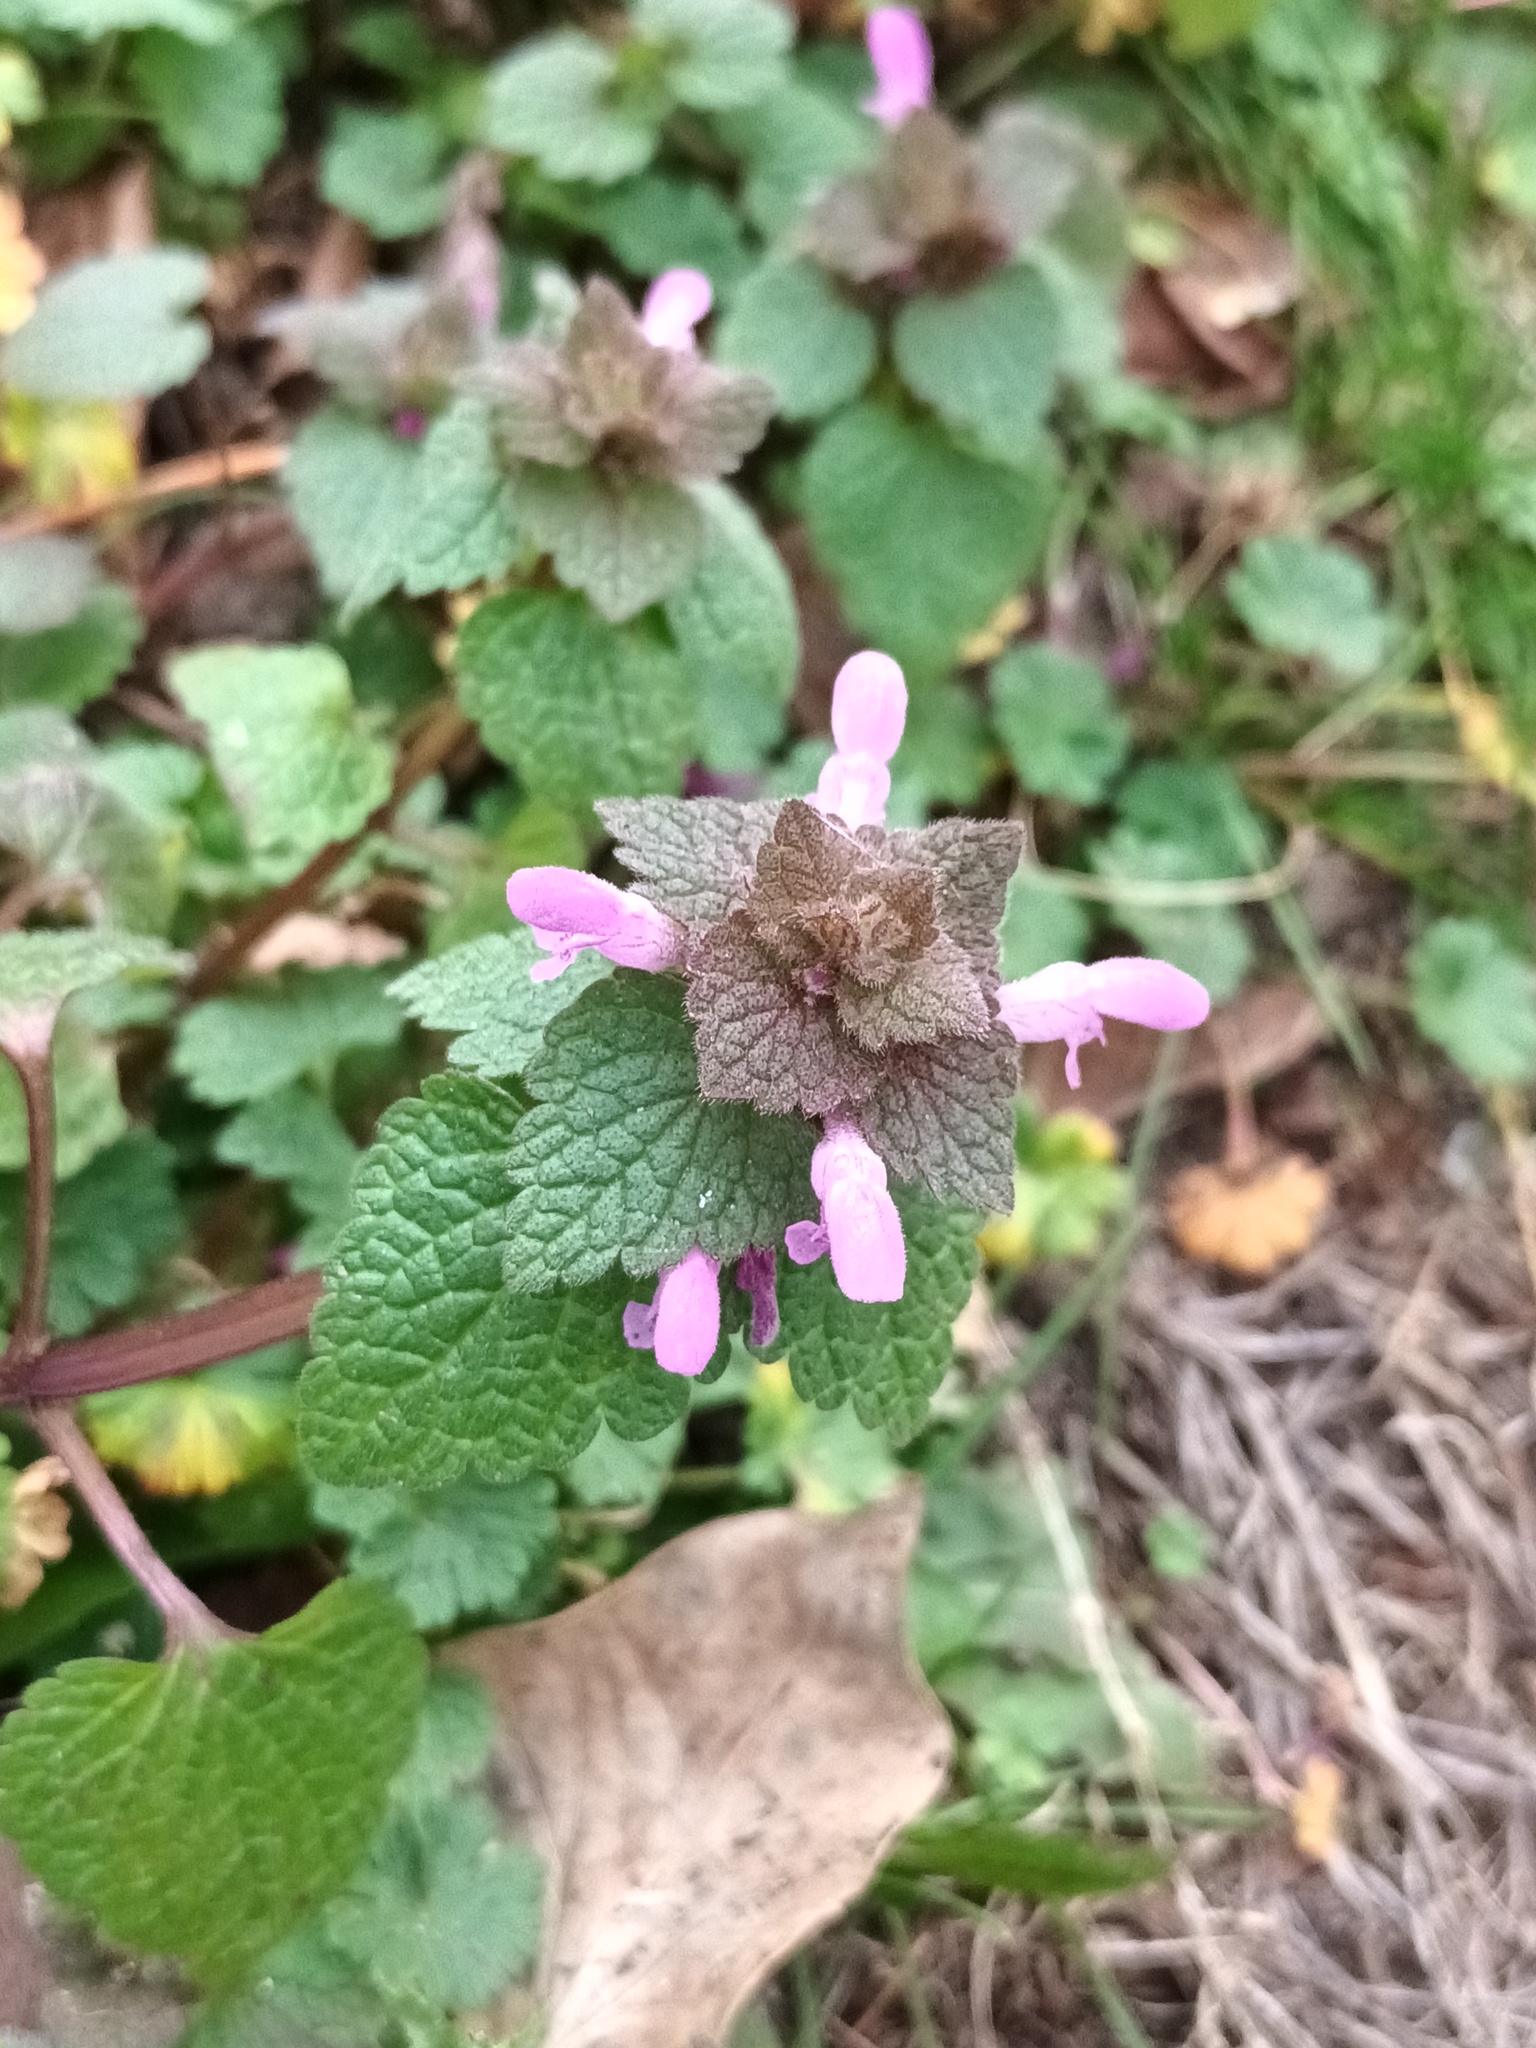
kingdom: Plantae
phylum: Tracheophyta
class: Magnoliopsida
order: Lamiales
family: Lamiaceae
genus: Lamium
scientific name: Lamium purpureum
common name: Red dead-nettle
